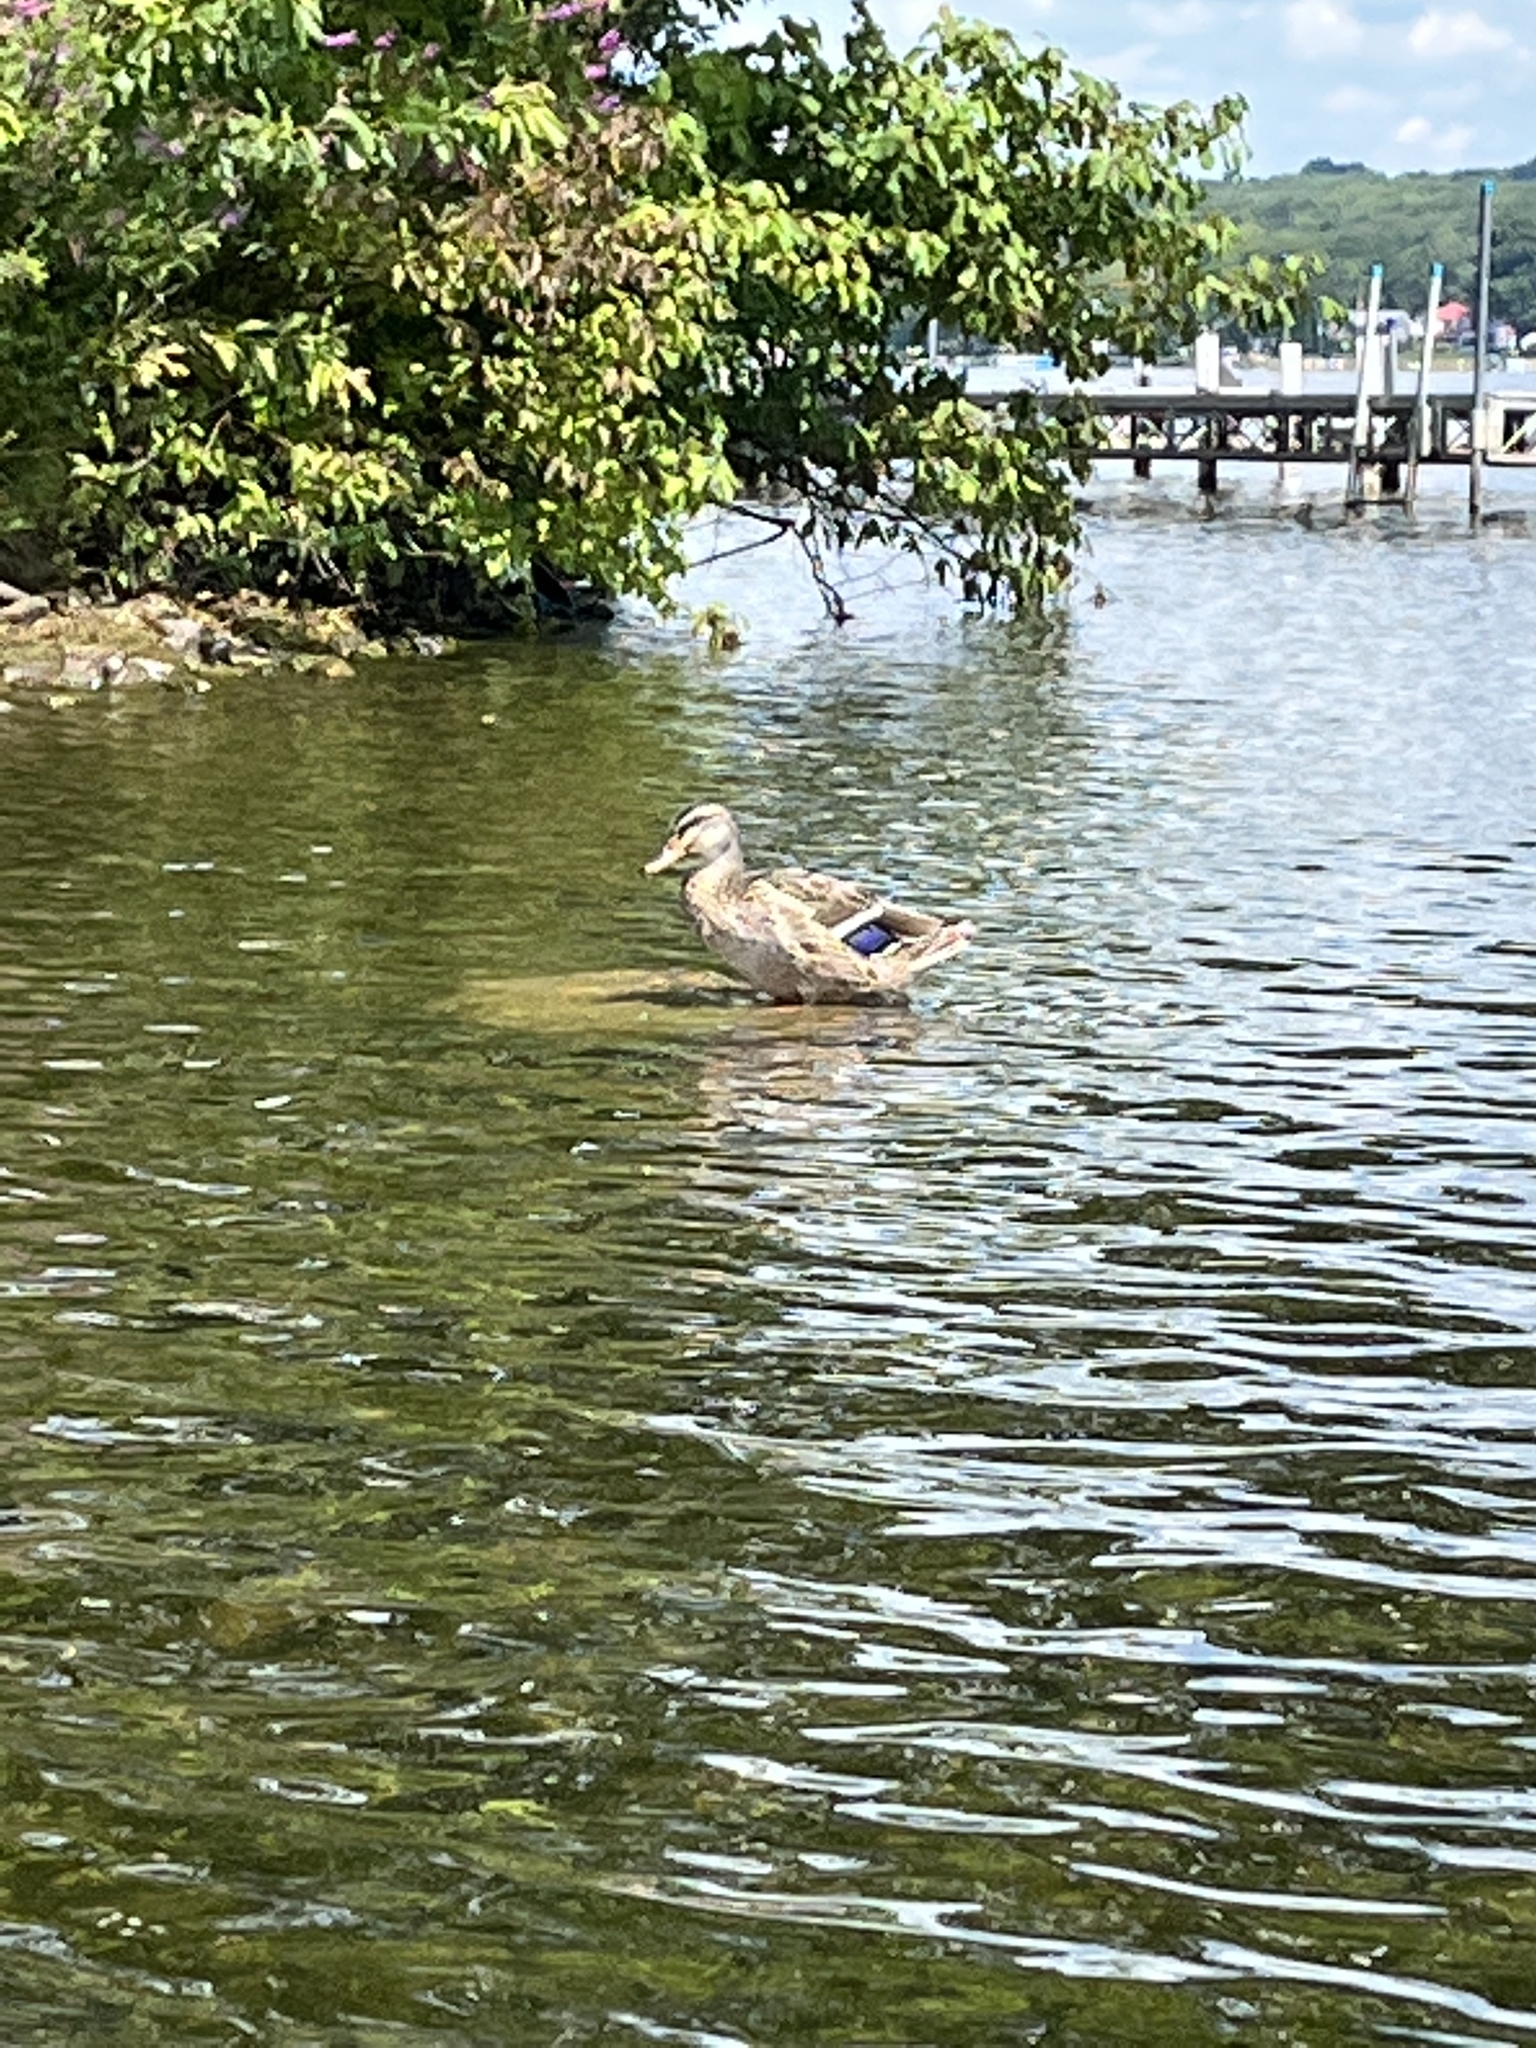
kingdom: Animalia
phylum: Chordata
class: Aves
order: Anseriformes
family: Anatidae
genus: Anas
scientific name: Anas platyrhynchos
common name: Mallard
